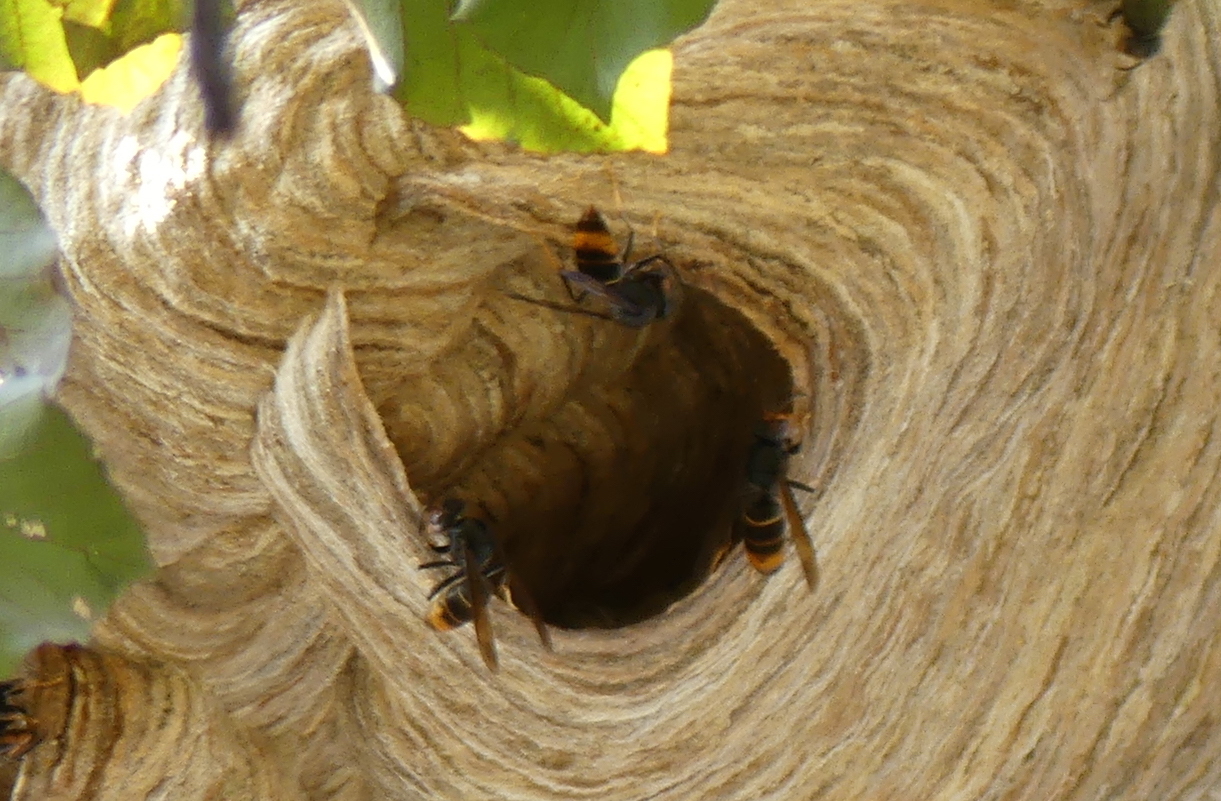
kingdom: Animalia
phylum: Arthropoda
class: Insecta
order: Hymenoptera
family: Vespidae
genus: Vespa
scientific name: Vespa velutina
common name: Asian hornet
